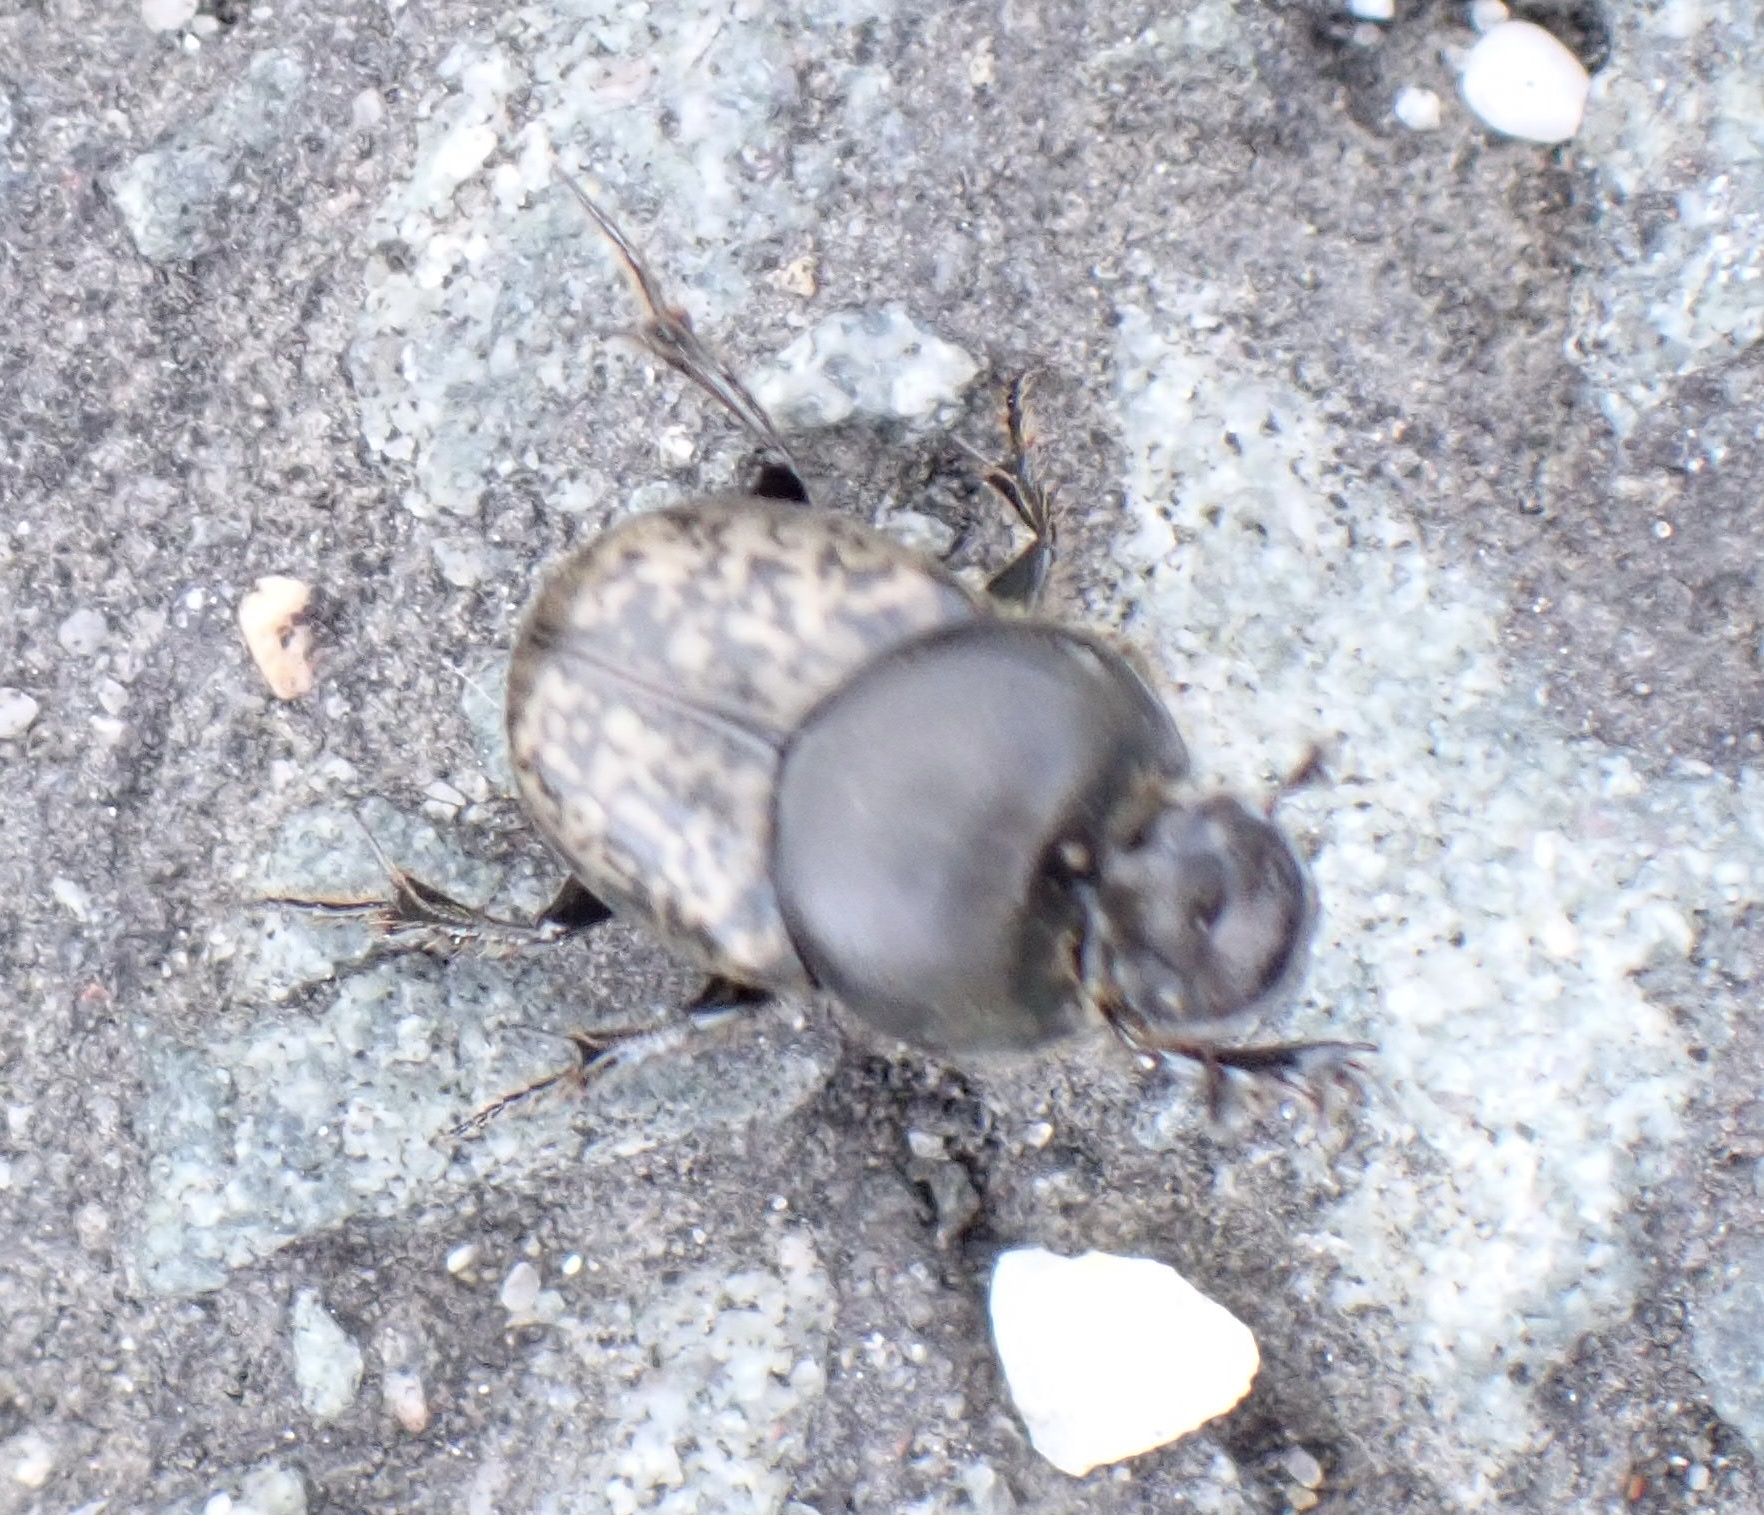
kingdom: Animalia
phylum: Arthropoda
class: Insecta
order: Coleoptera
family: Scarabaeidae
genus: Onthophagus
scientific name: Onthophagus nuchicornis
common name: Mottled dung beetle
